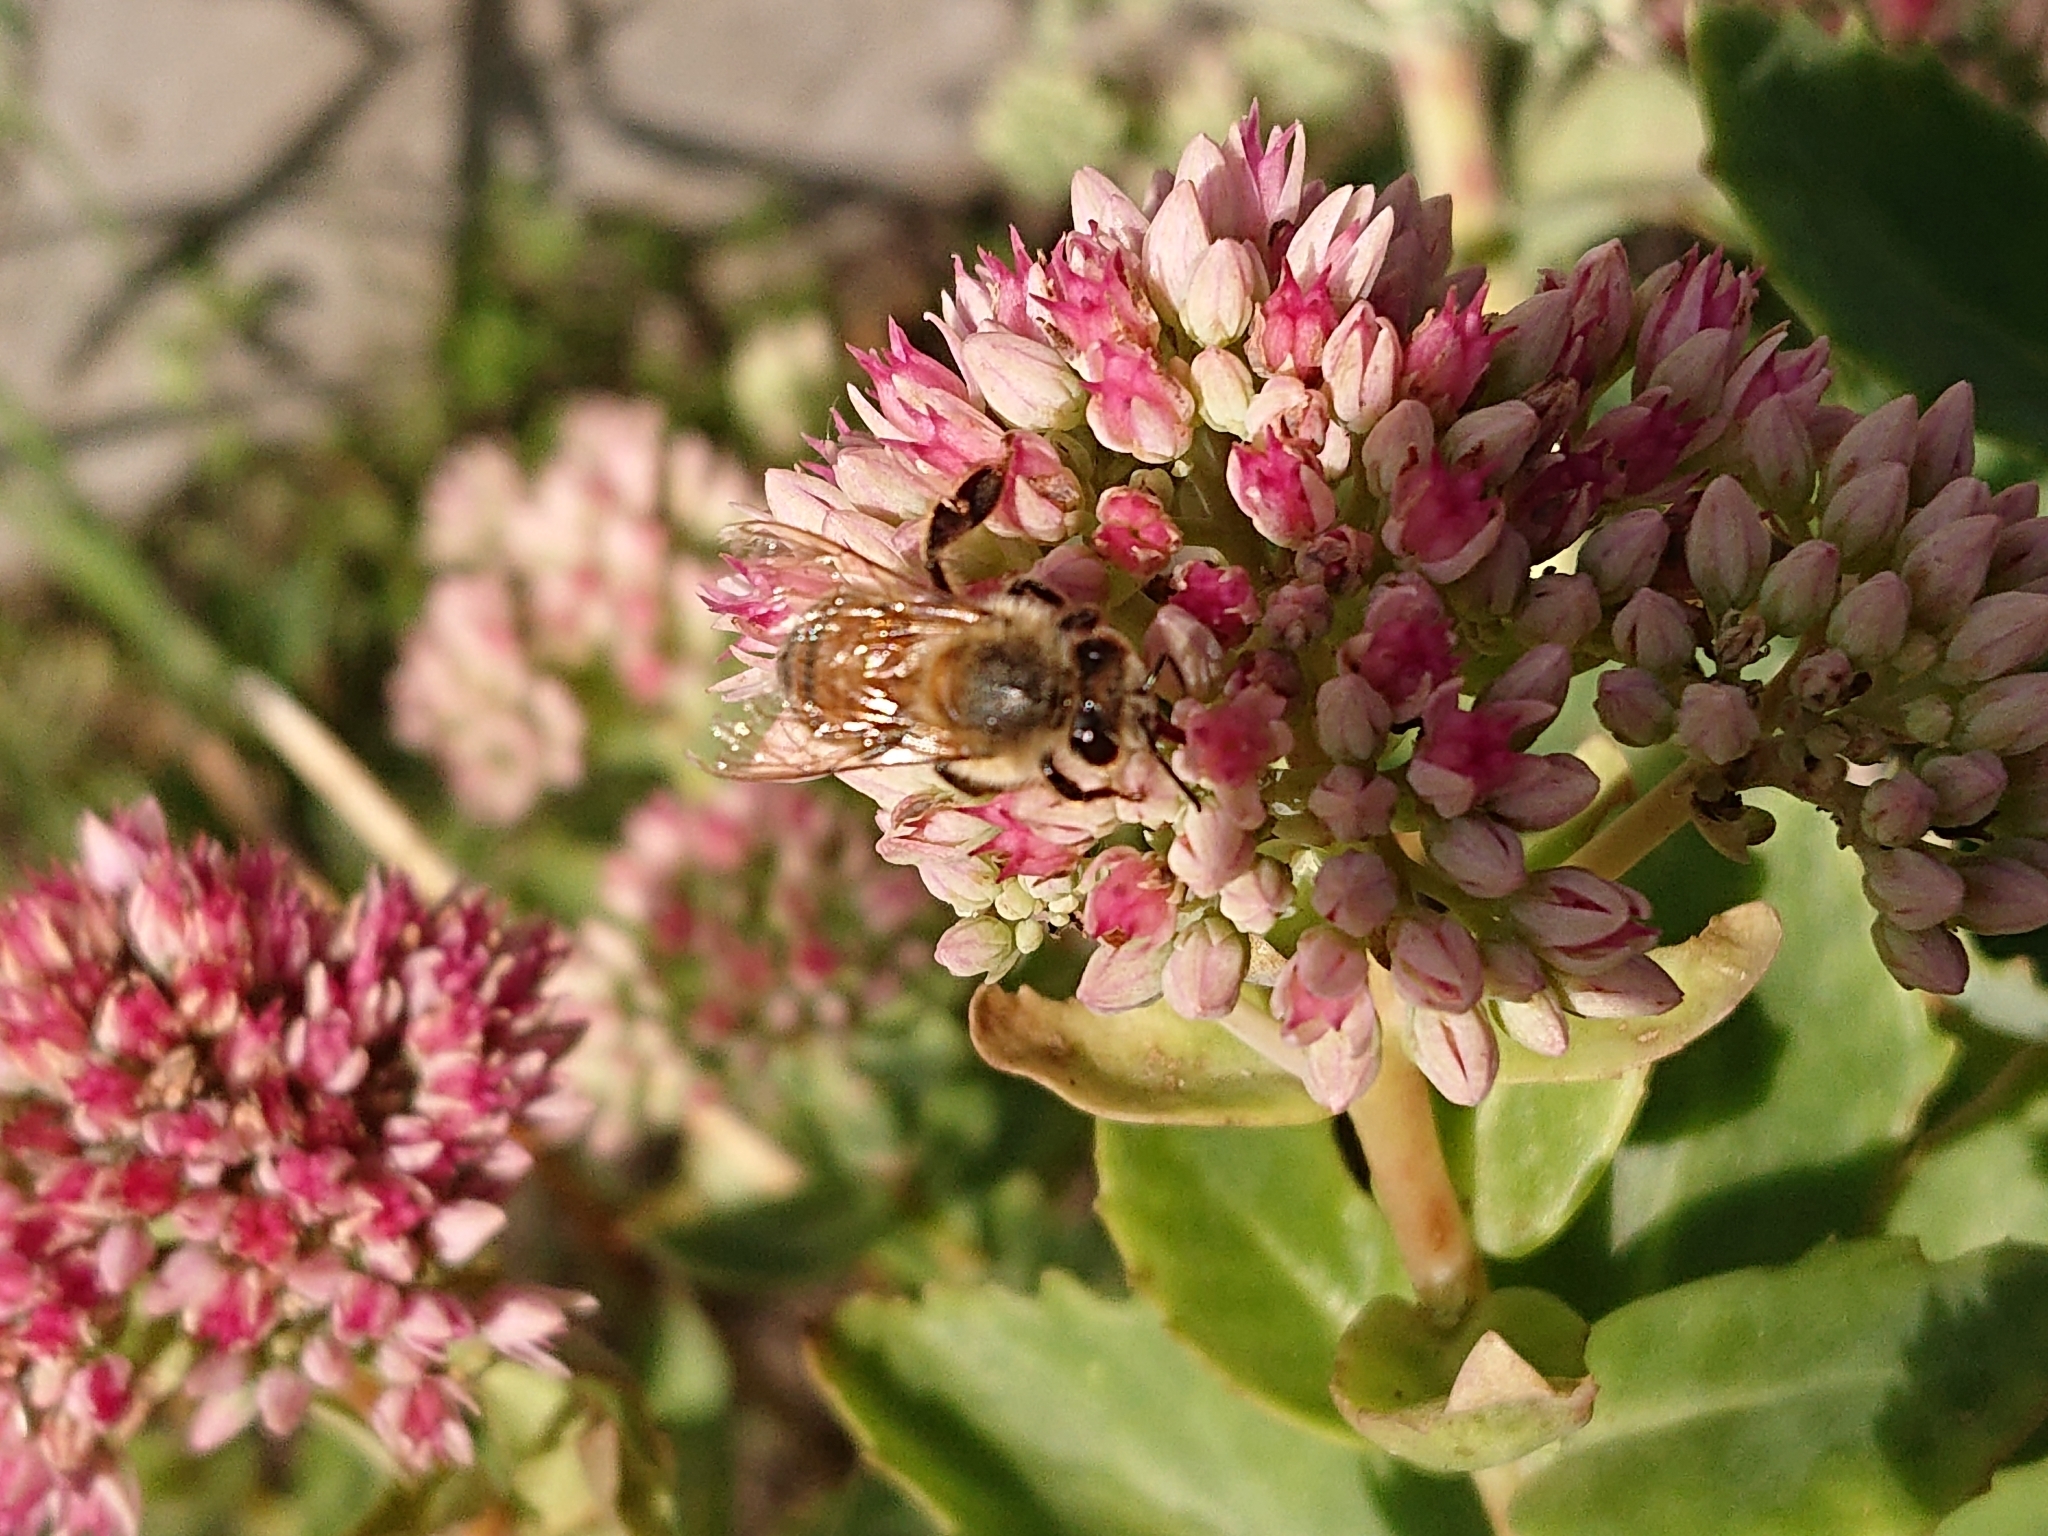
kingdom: Animalia
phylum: Arthropoda
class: Insecta
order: Hymenoptera
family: Apidae
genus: Apis
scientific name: Apis mellifera
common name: Honey bee
